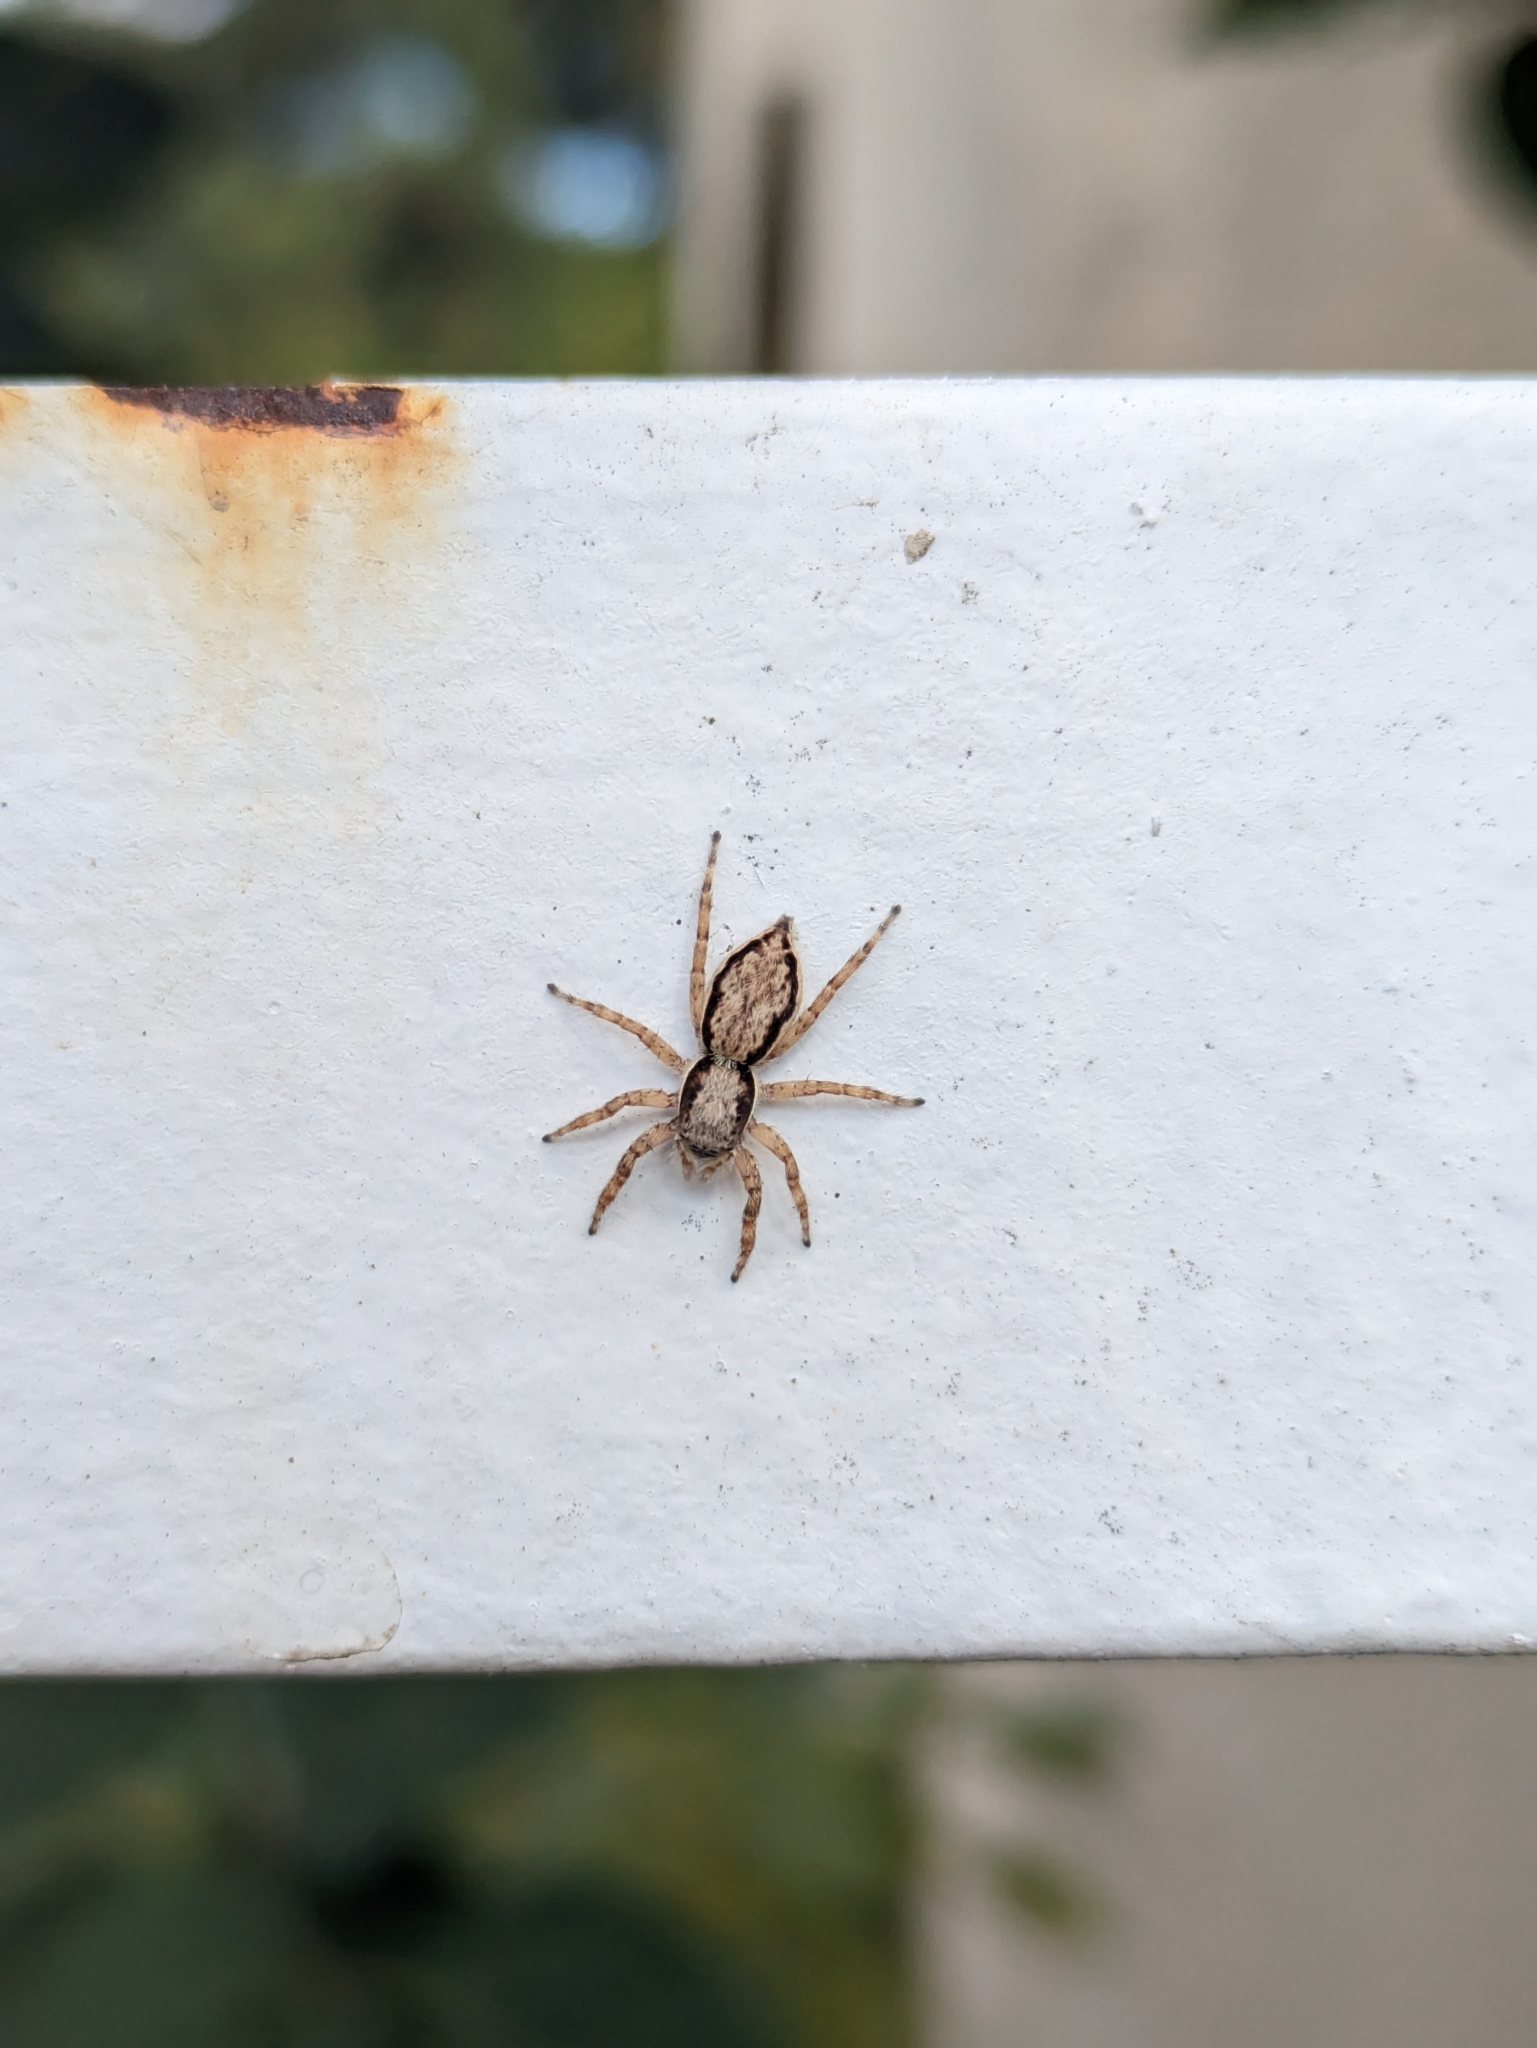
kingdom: Animalia
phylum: Arthropoda
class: Arachnida
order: Araneae
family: Salticidae
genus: Menemerus
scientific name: Menemerus bivittatus
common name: Gray wall jumper
